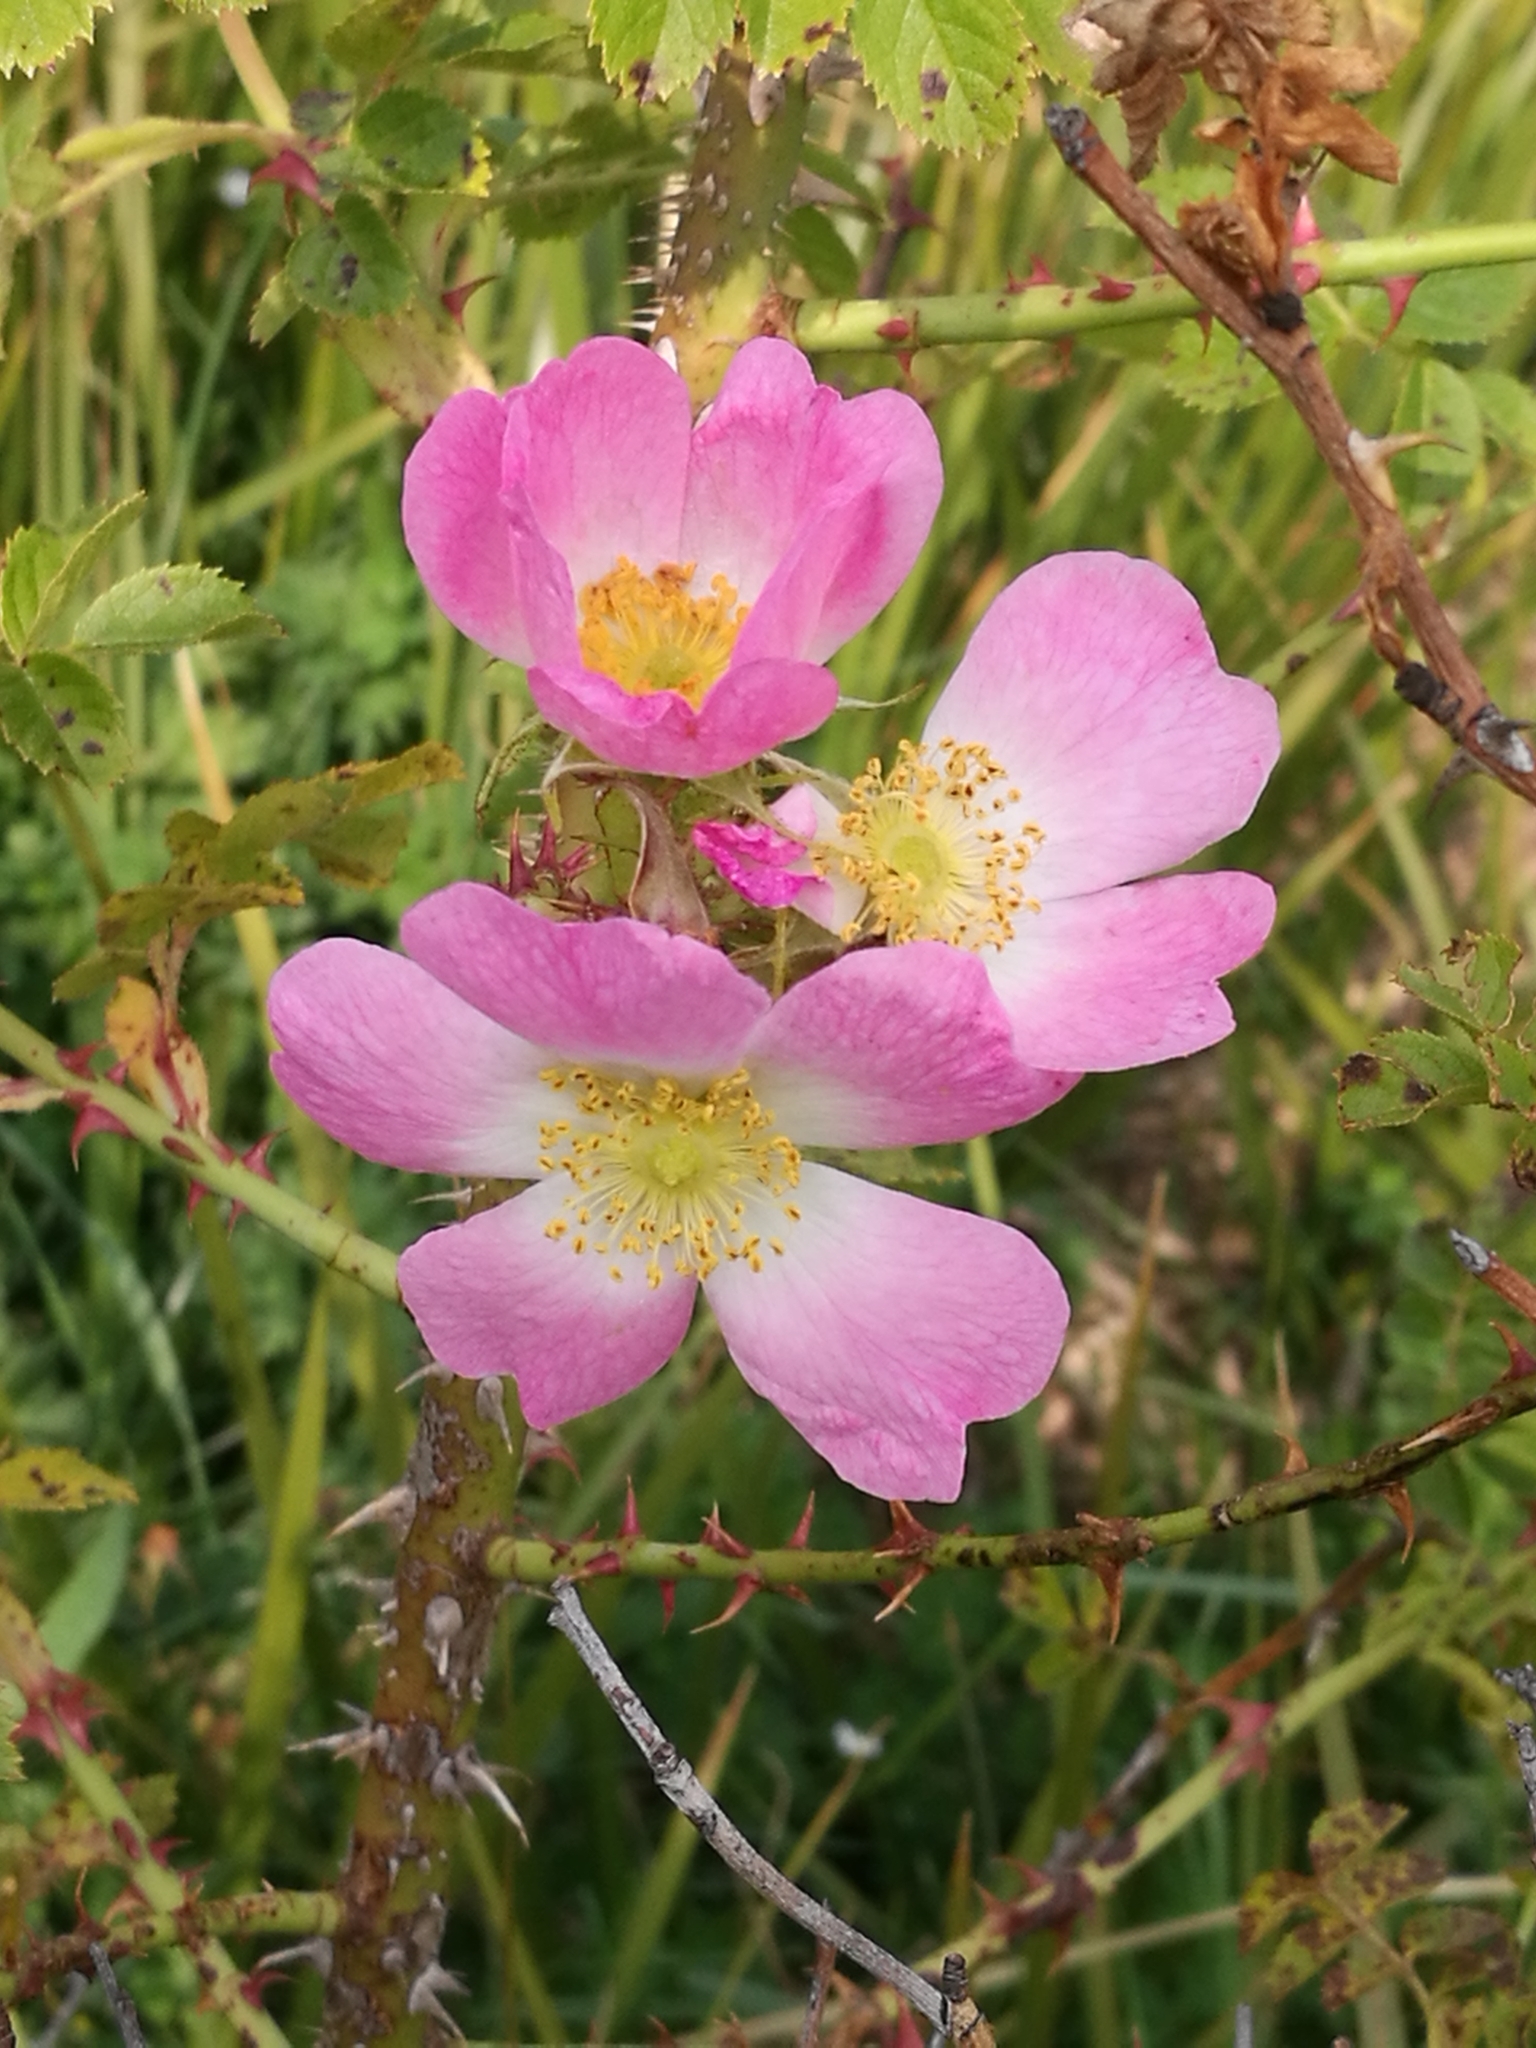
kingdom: Plantae
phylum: Tracheophyta
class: Magnoliopsida
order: Rosales
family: Rosaceae
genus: Rosa
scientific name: Rosa rubiginosa
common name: Sweet-briar
